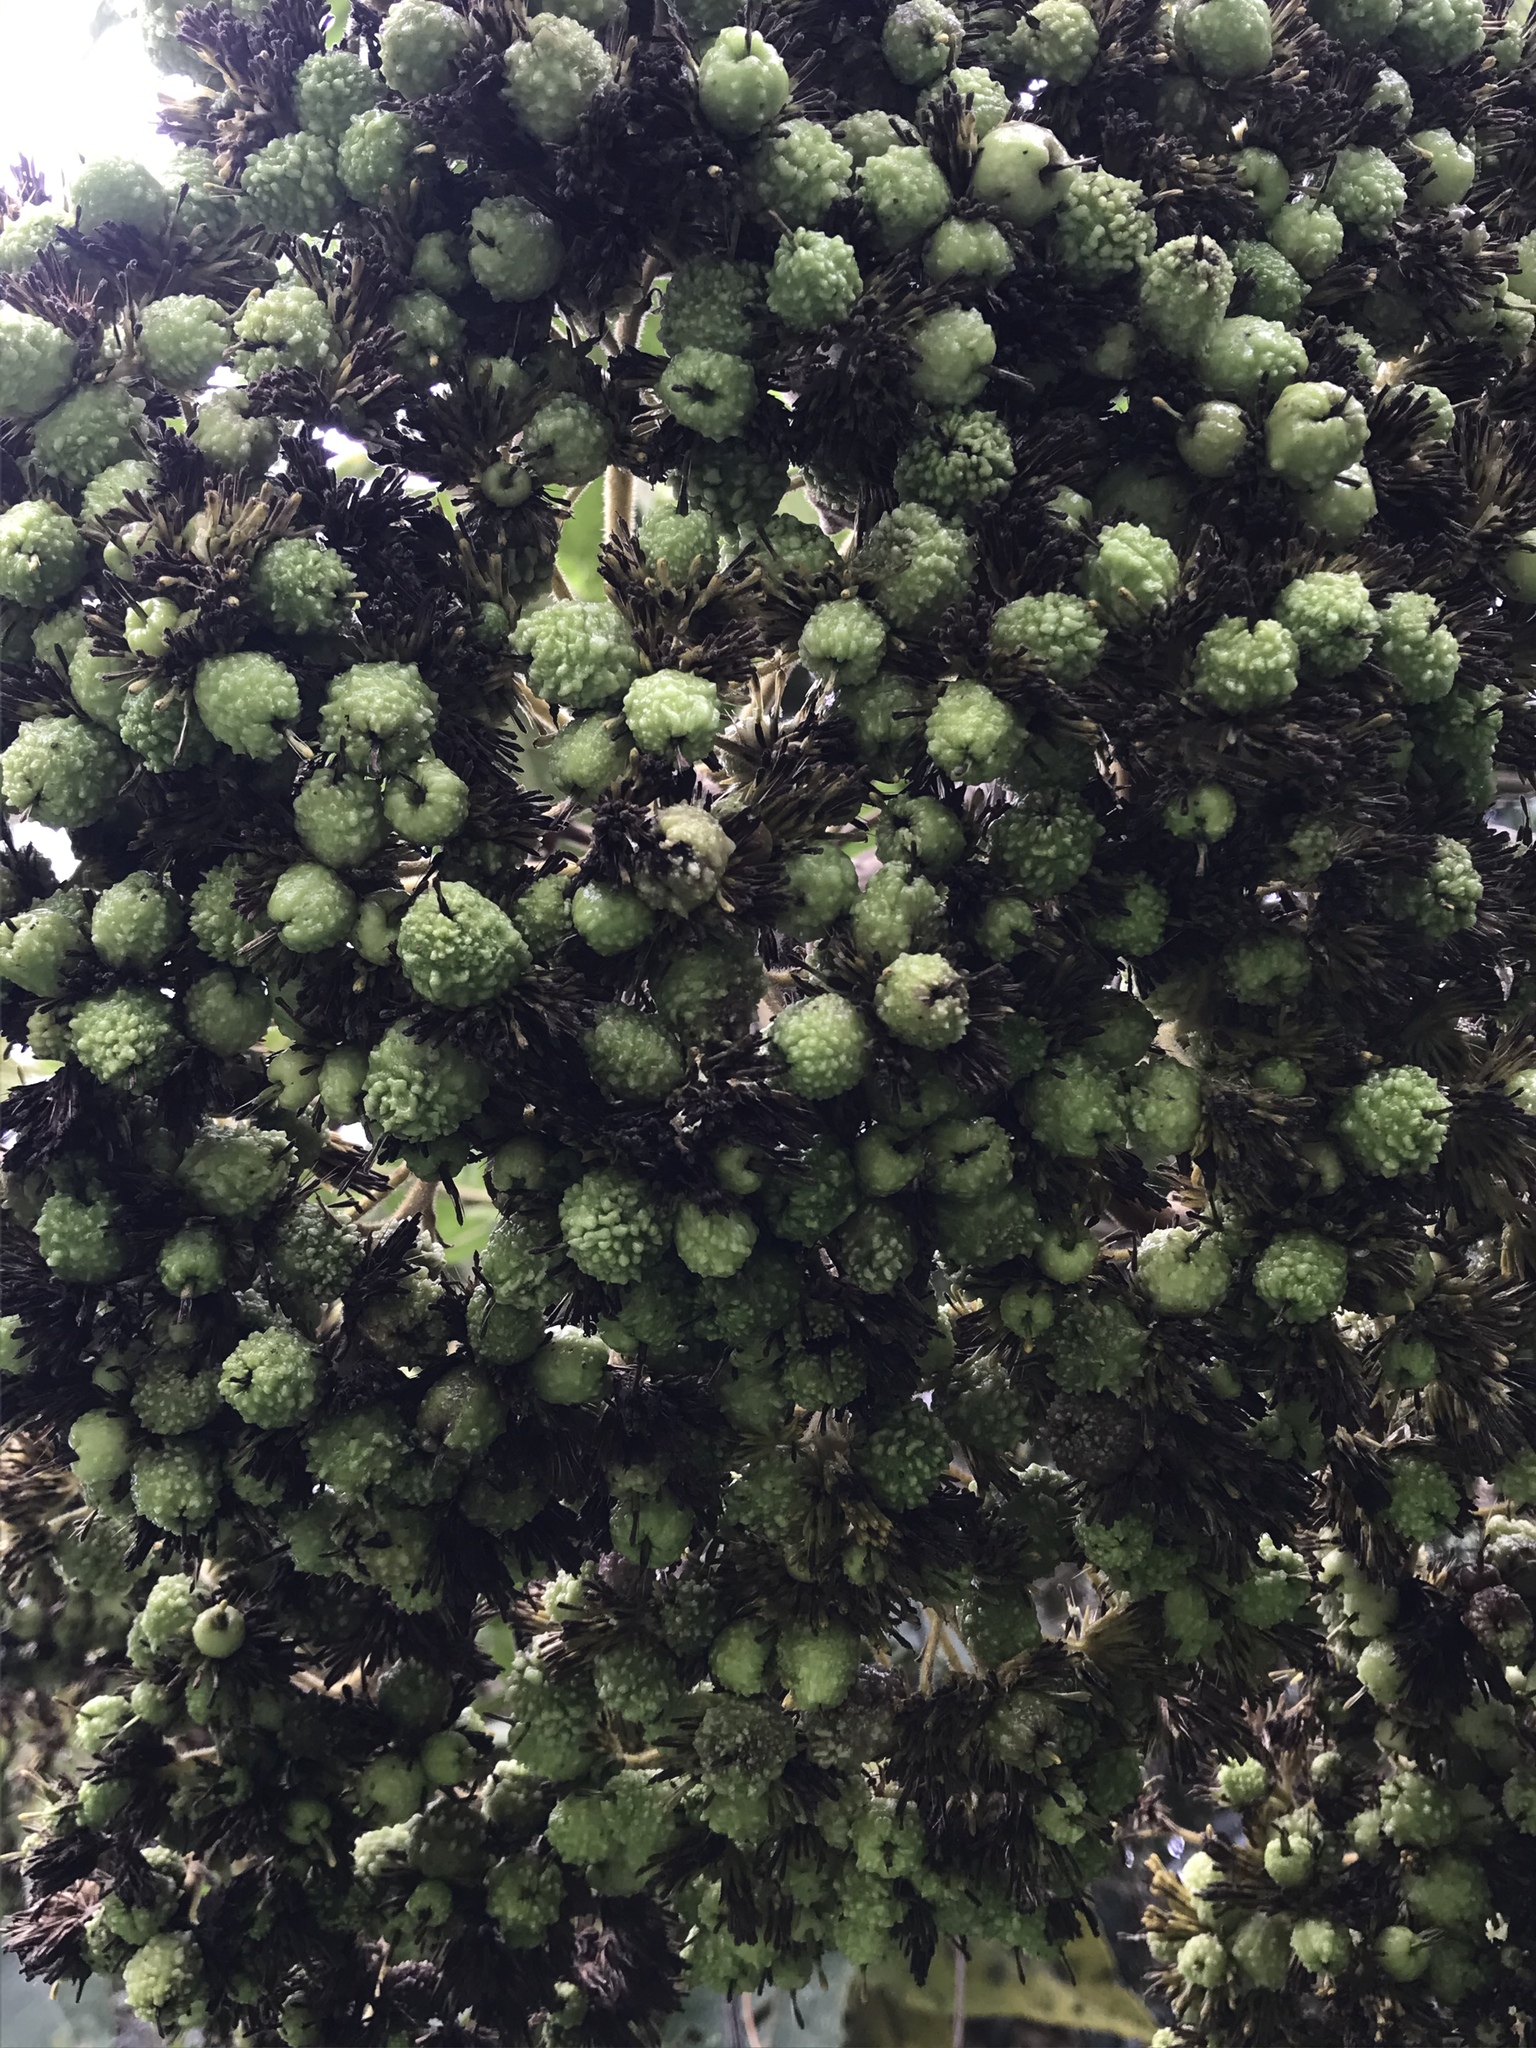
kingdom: Plantae
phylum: Tracheophyta
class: Magnoliopsida
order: Asterales
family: Asteraceae
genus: Verbesina
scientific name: Verbesina crassiramea
